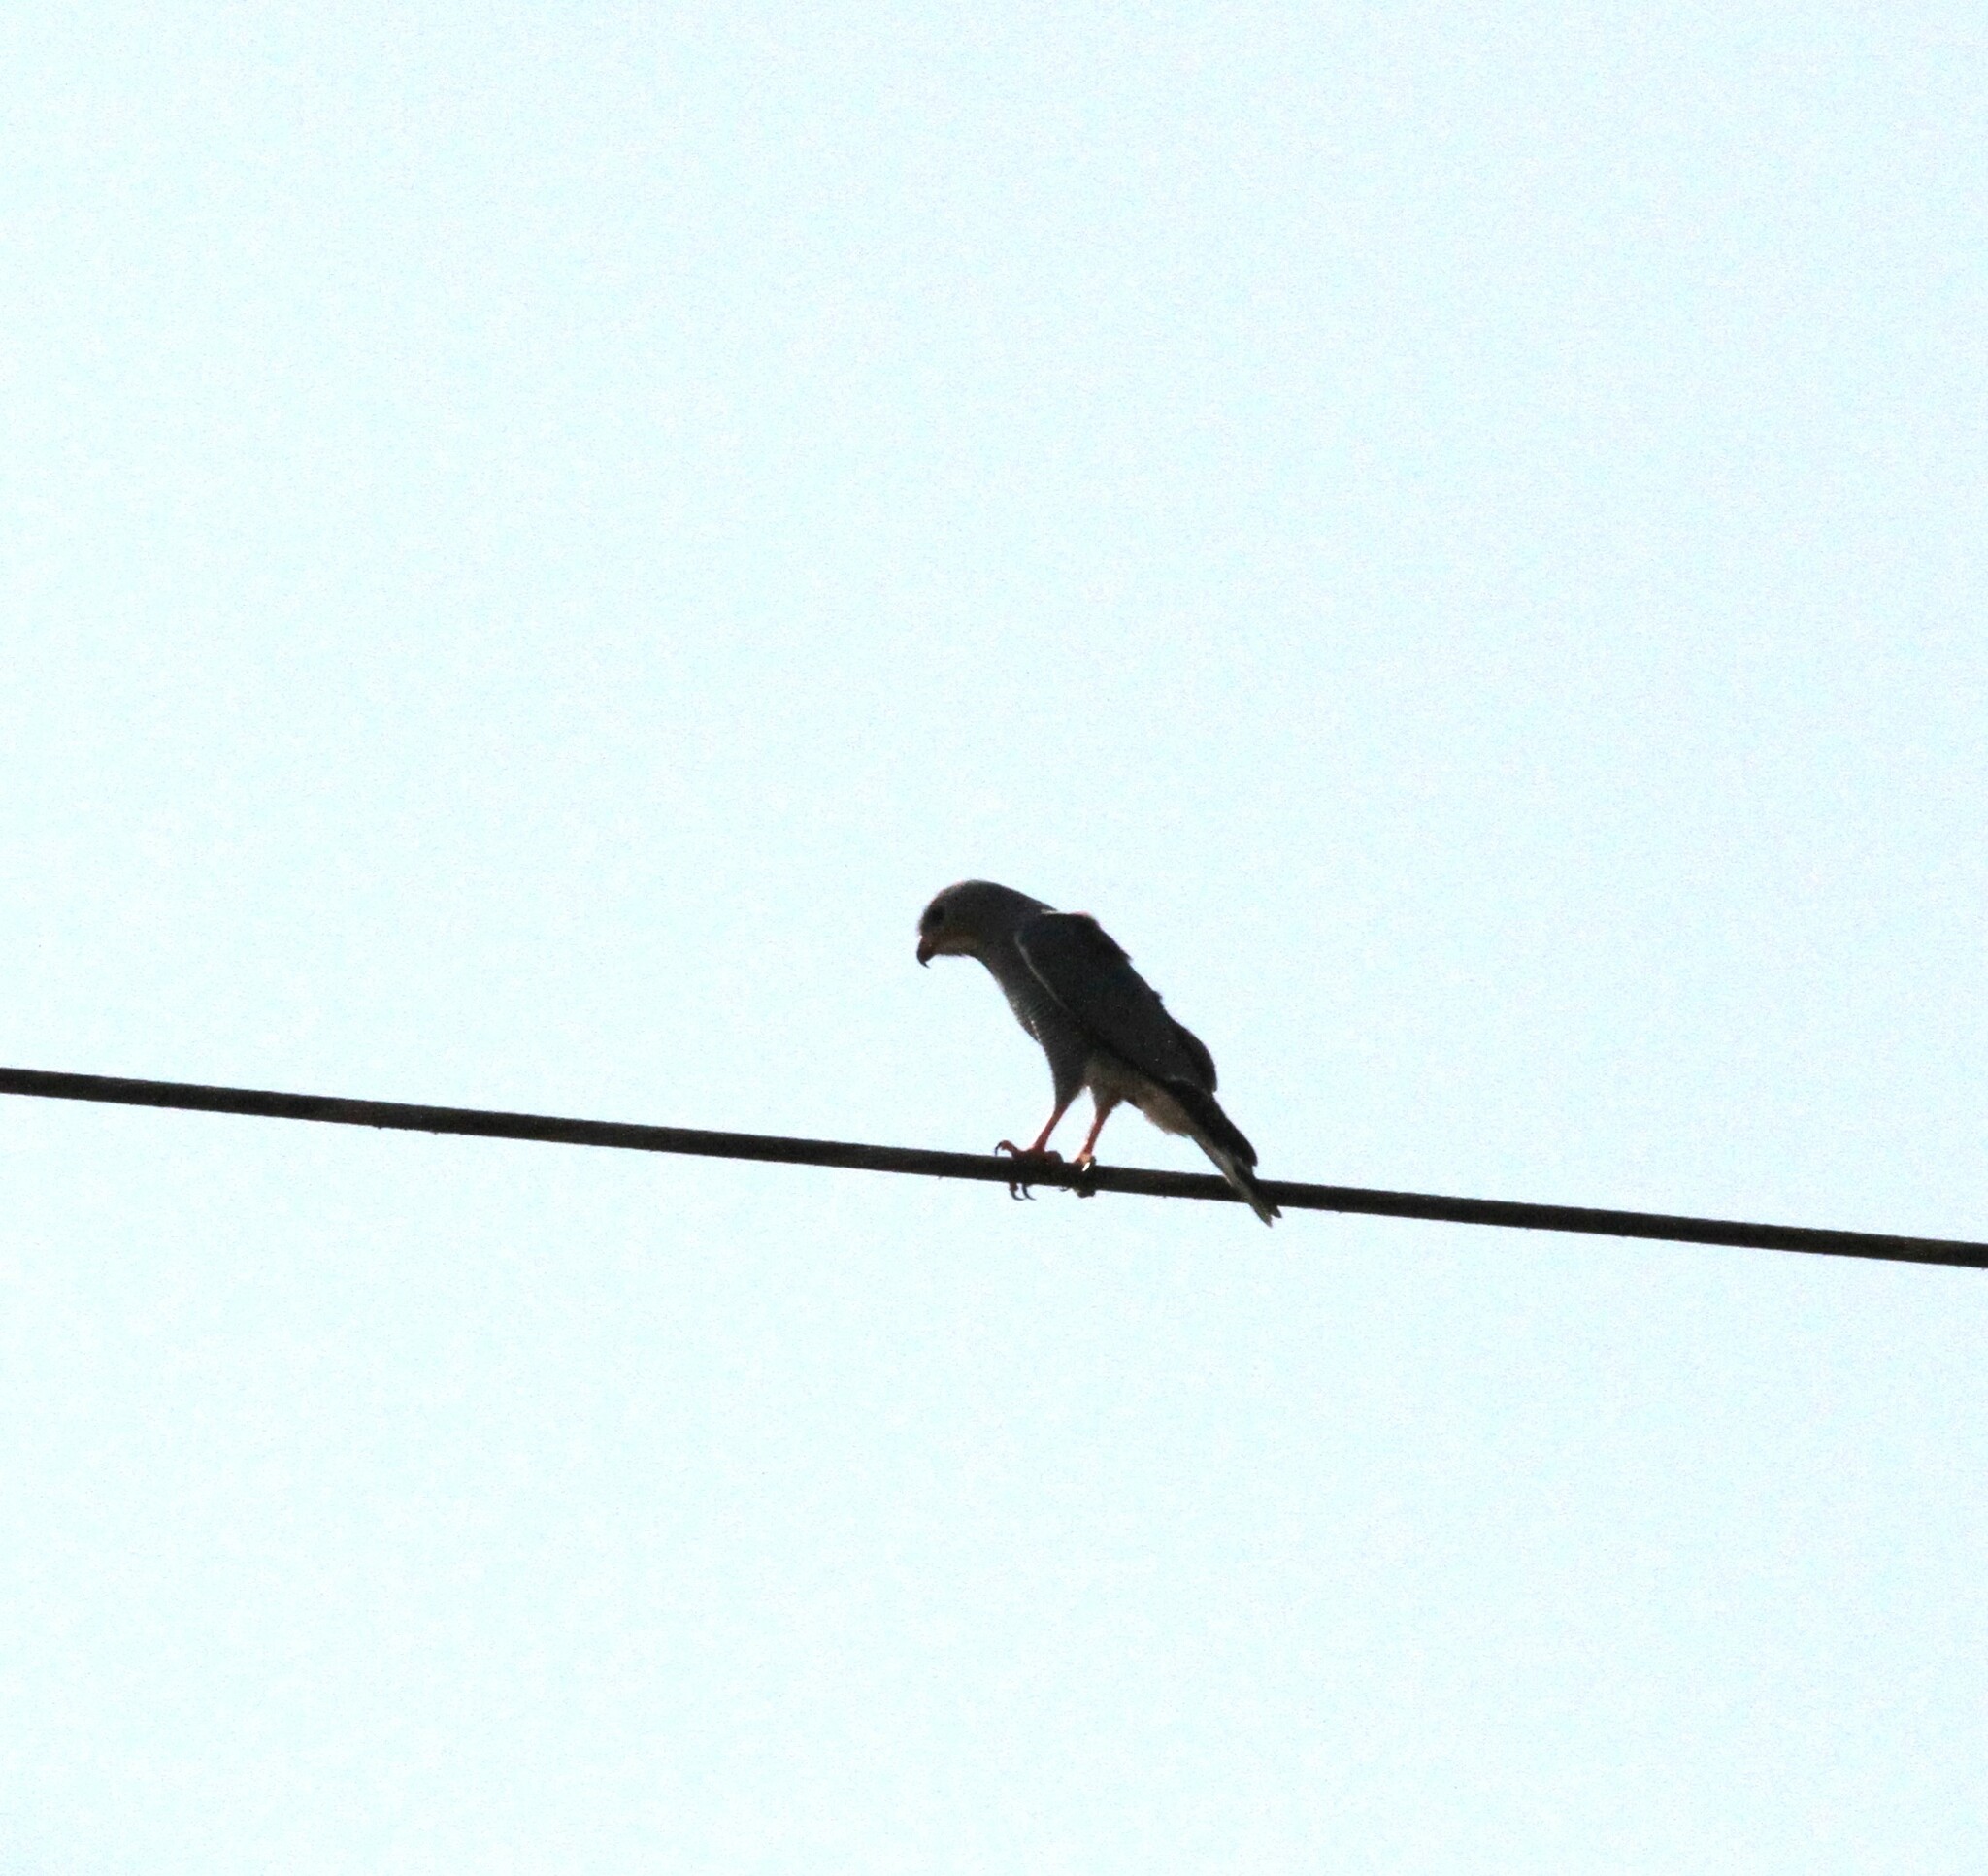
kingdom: Animalia
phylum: Chordata
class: Aves
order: Accipitriformes
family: Accipitridae
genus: Kaupifalco
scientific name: Kaupifalco monogrammicus
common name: Lizard buzzard
